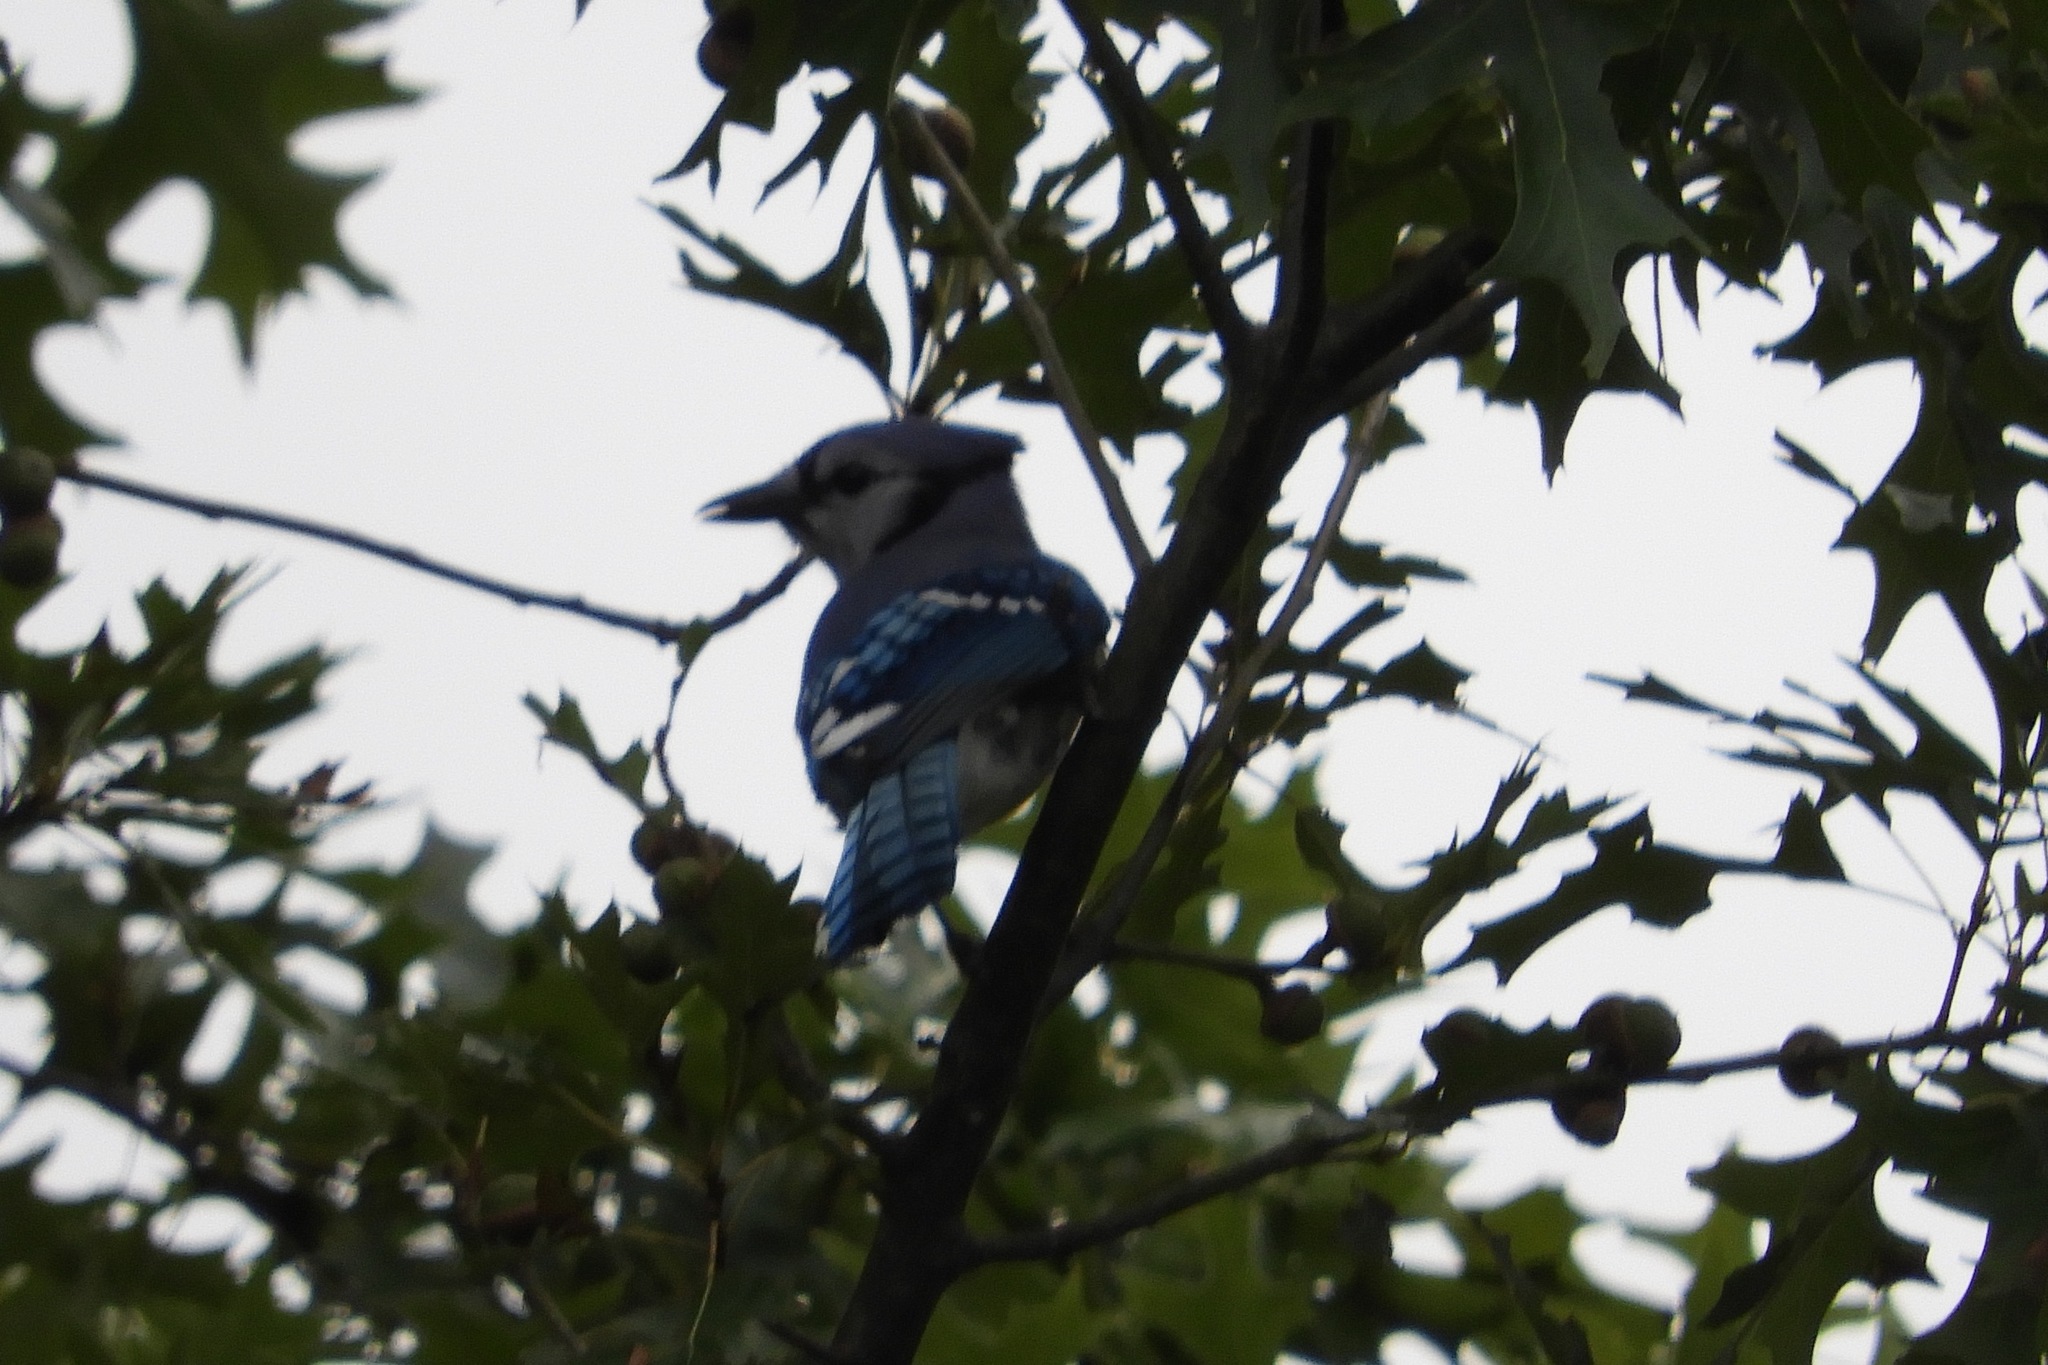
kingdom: Animalia
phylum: Chordata
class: Aves
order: Passeriformes
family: Corvidae
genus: Cyanocitta
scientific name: Cyanocitta cristata
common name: Blue jay
